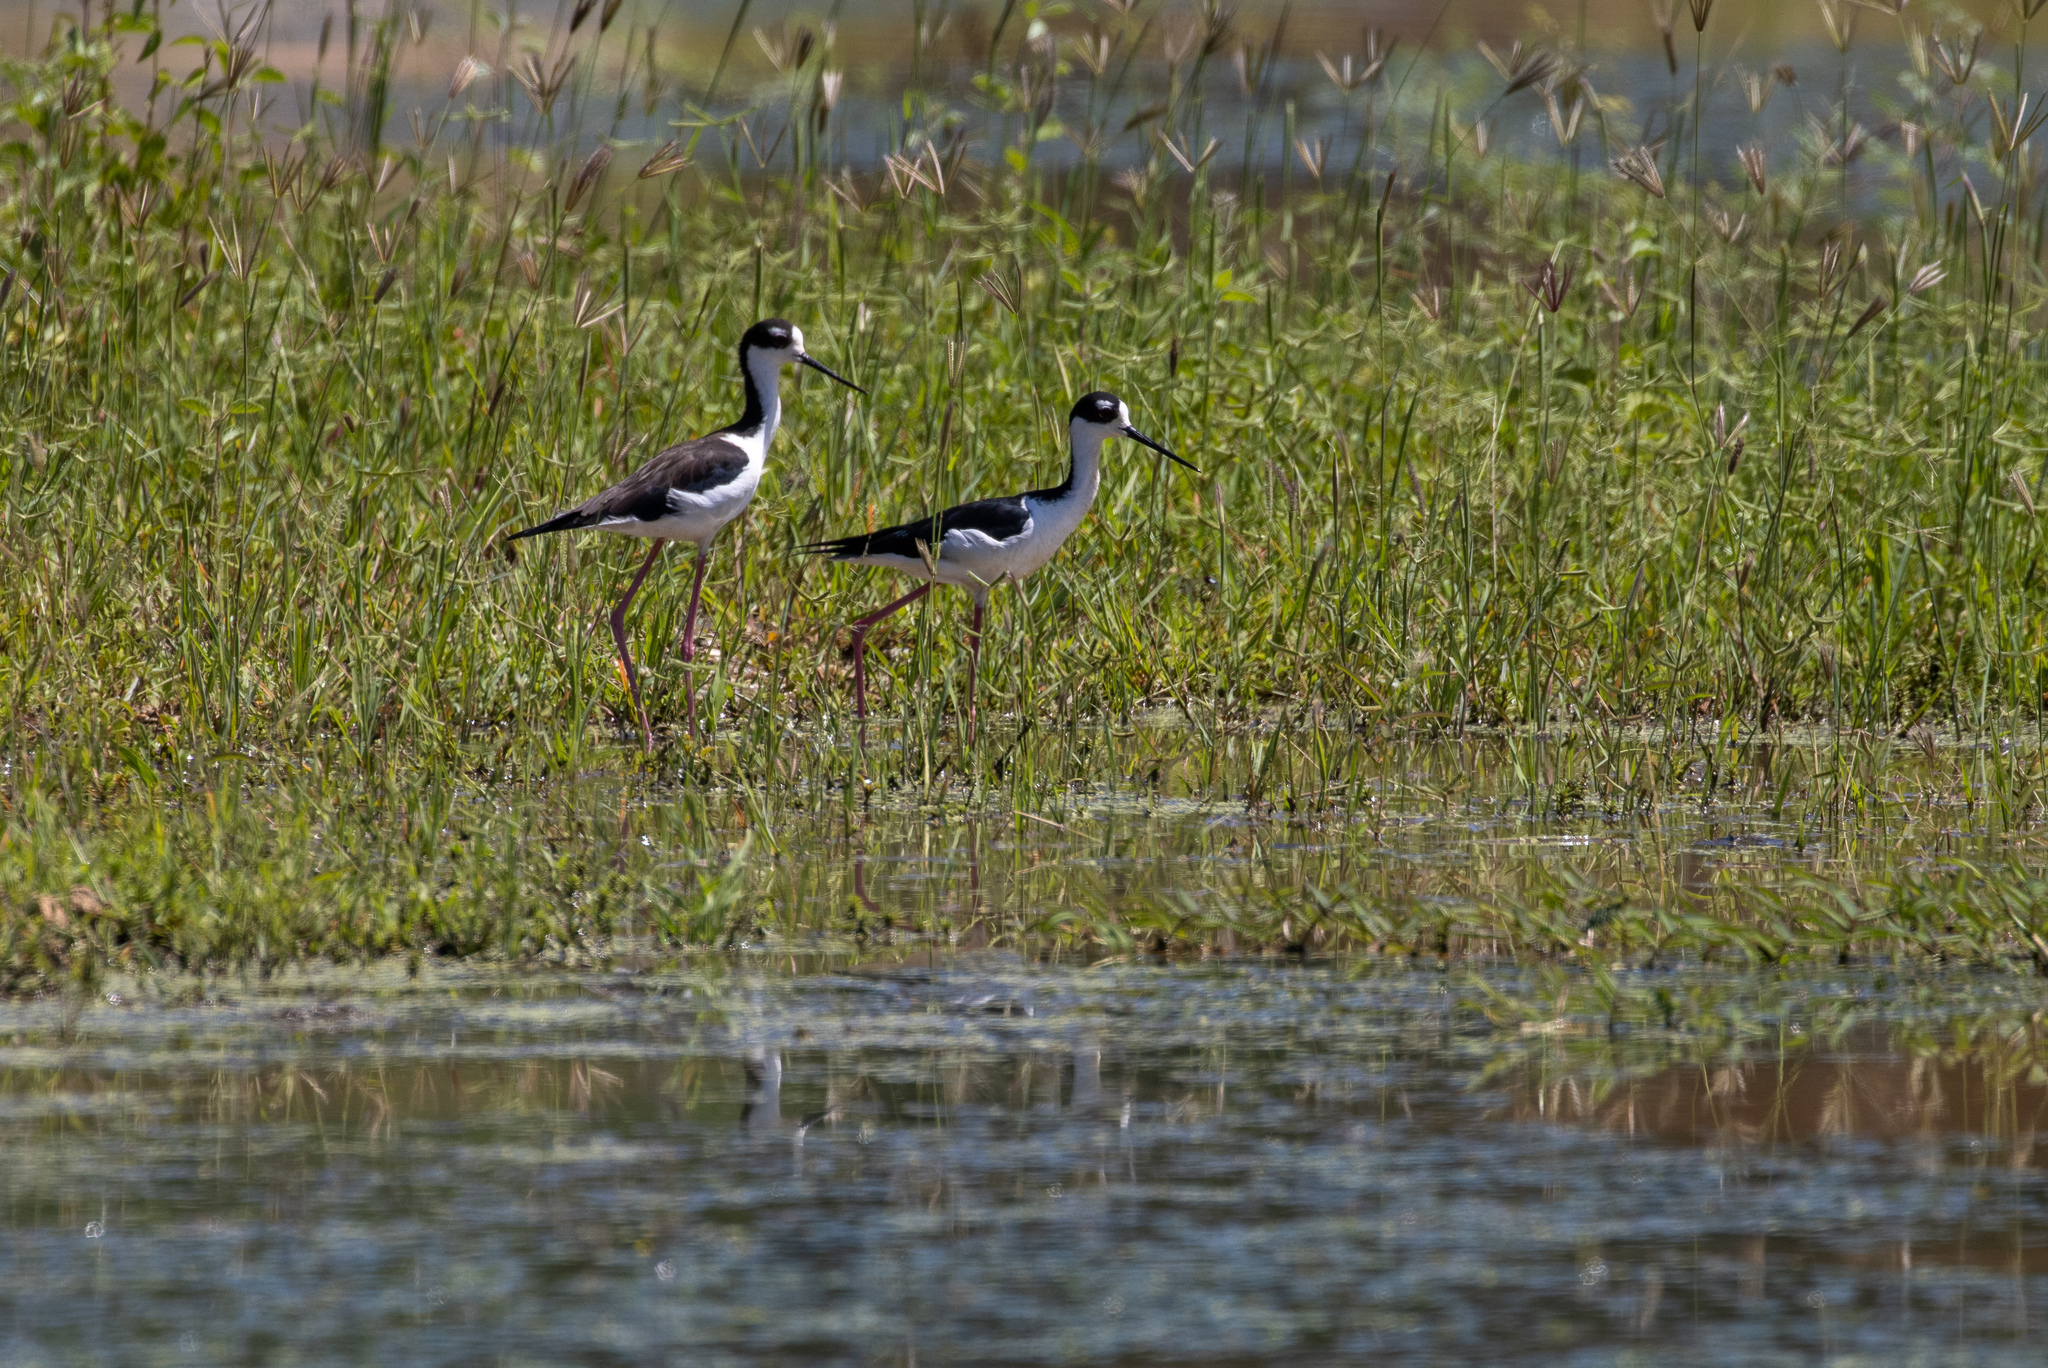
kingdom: Animalia
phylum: Chordata
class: Aves
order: Charadriiformes
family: Recurvirostridae
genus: Himantopus
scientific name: Himantopus mexicanus
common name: Black-necked stilt
